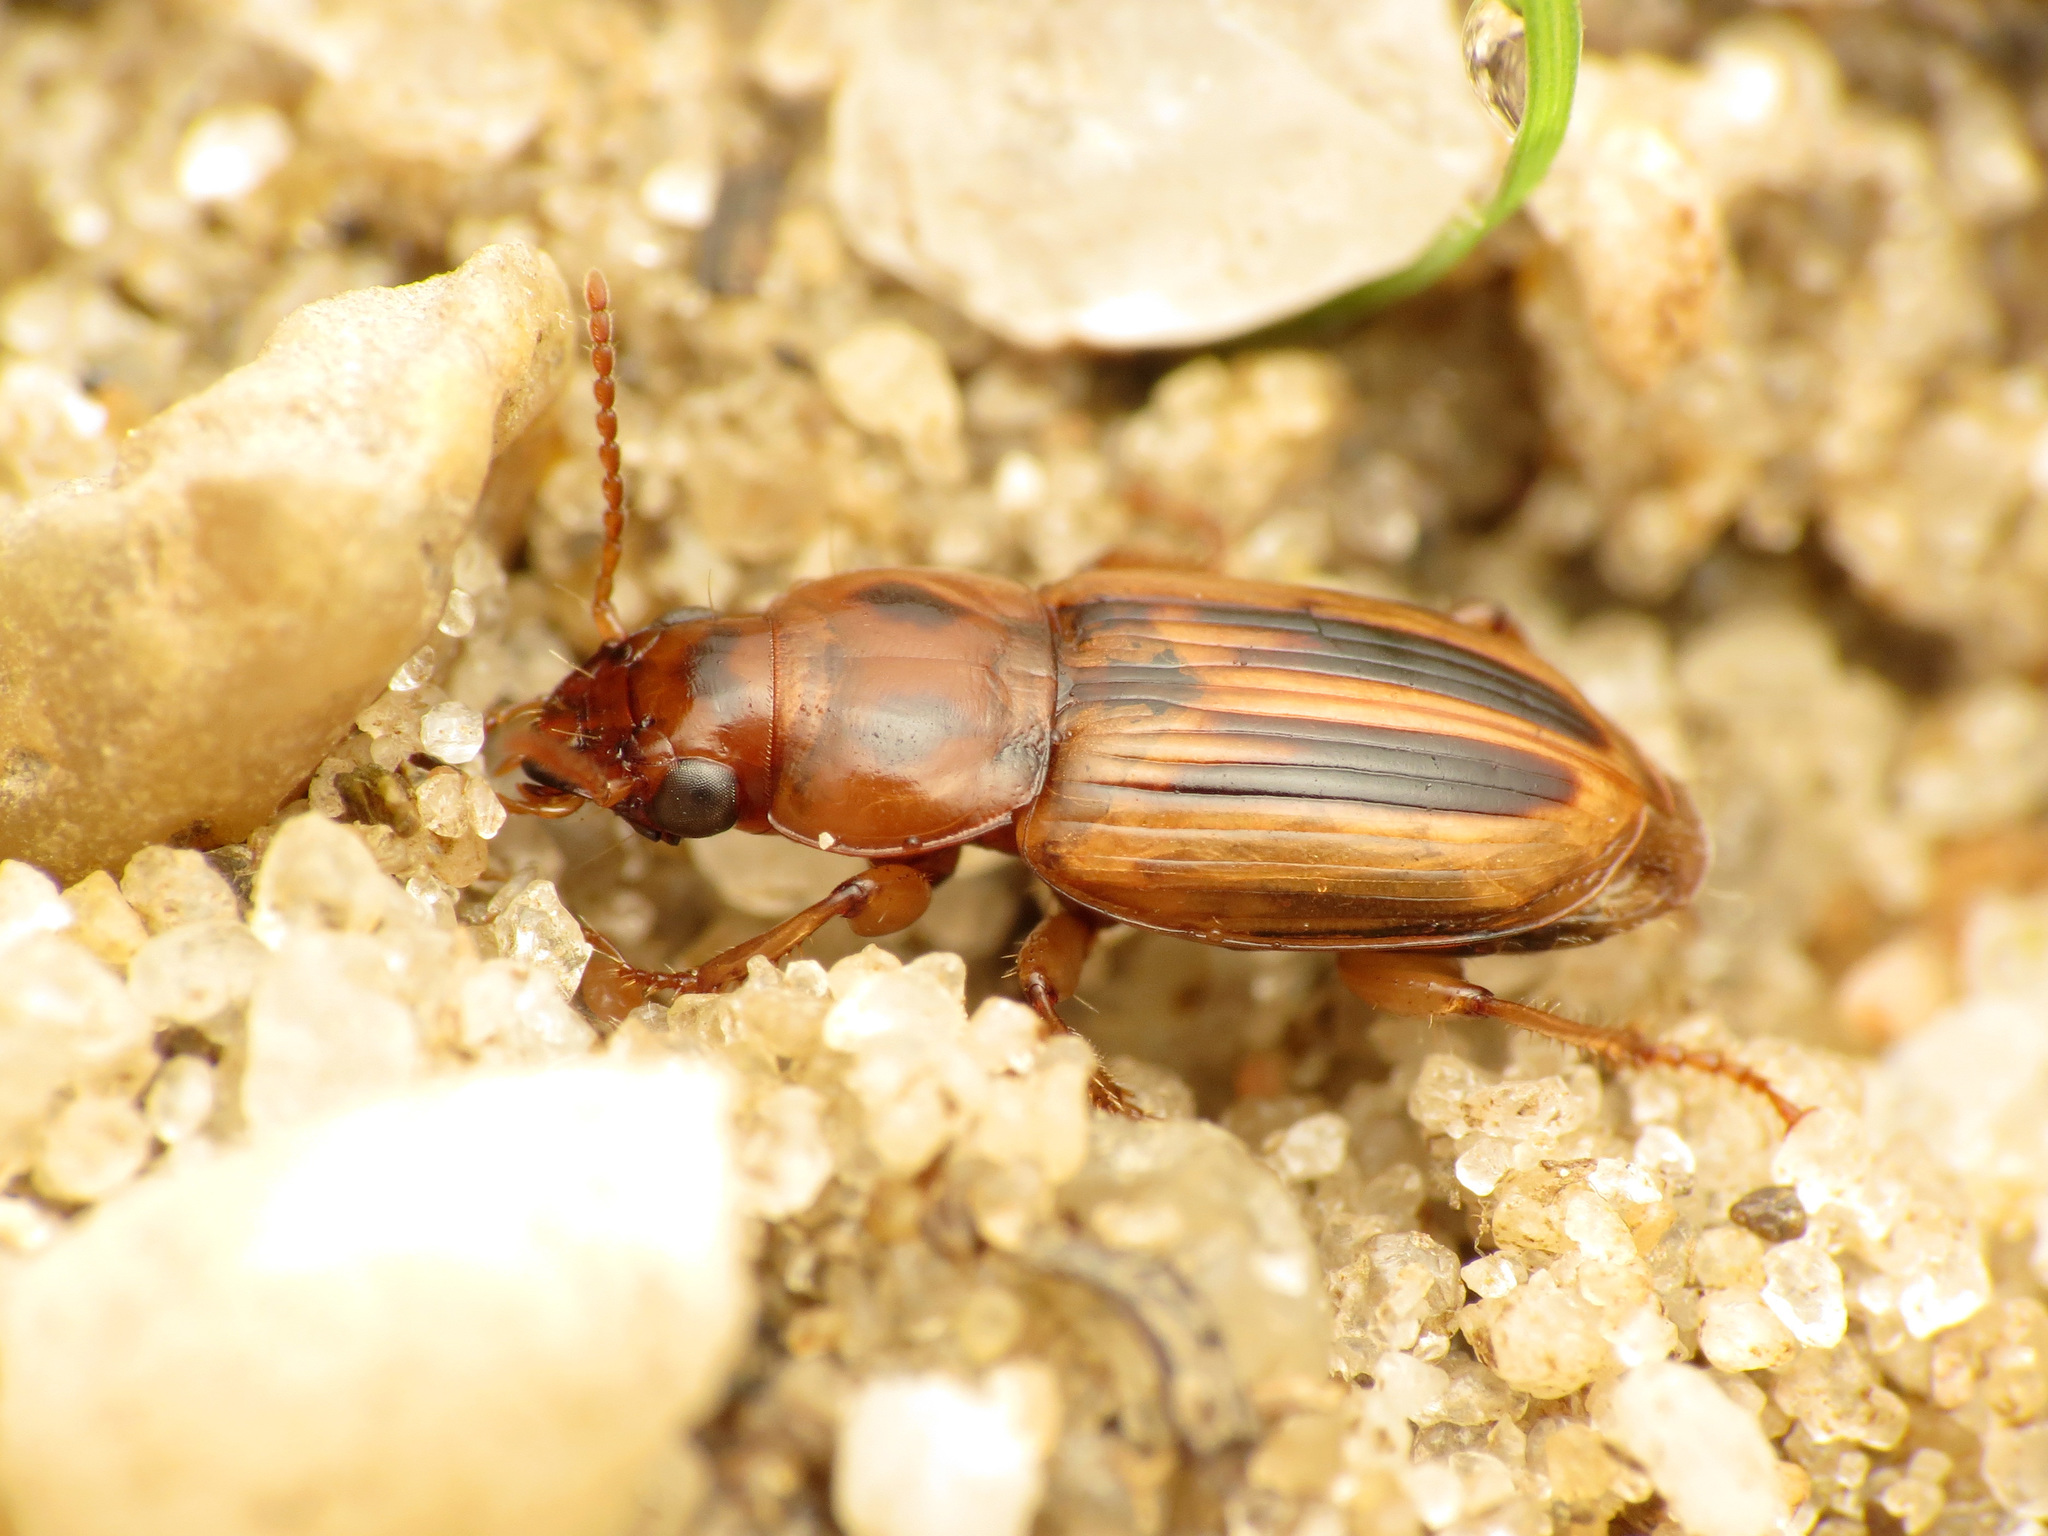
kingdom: Animalia
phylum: Arthropoda
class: Insecta
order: Coleoptera
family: Carabidae
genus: Stenolophus
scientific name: Stenolophus lineola
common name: Lined stenolophus
